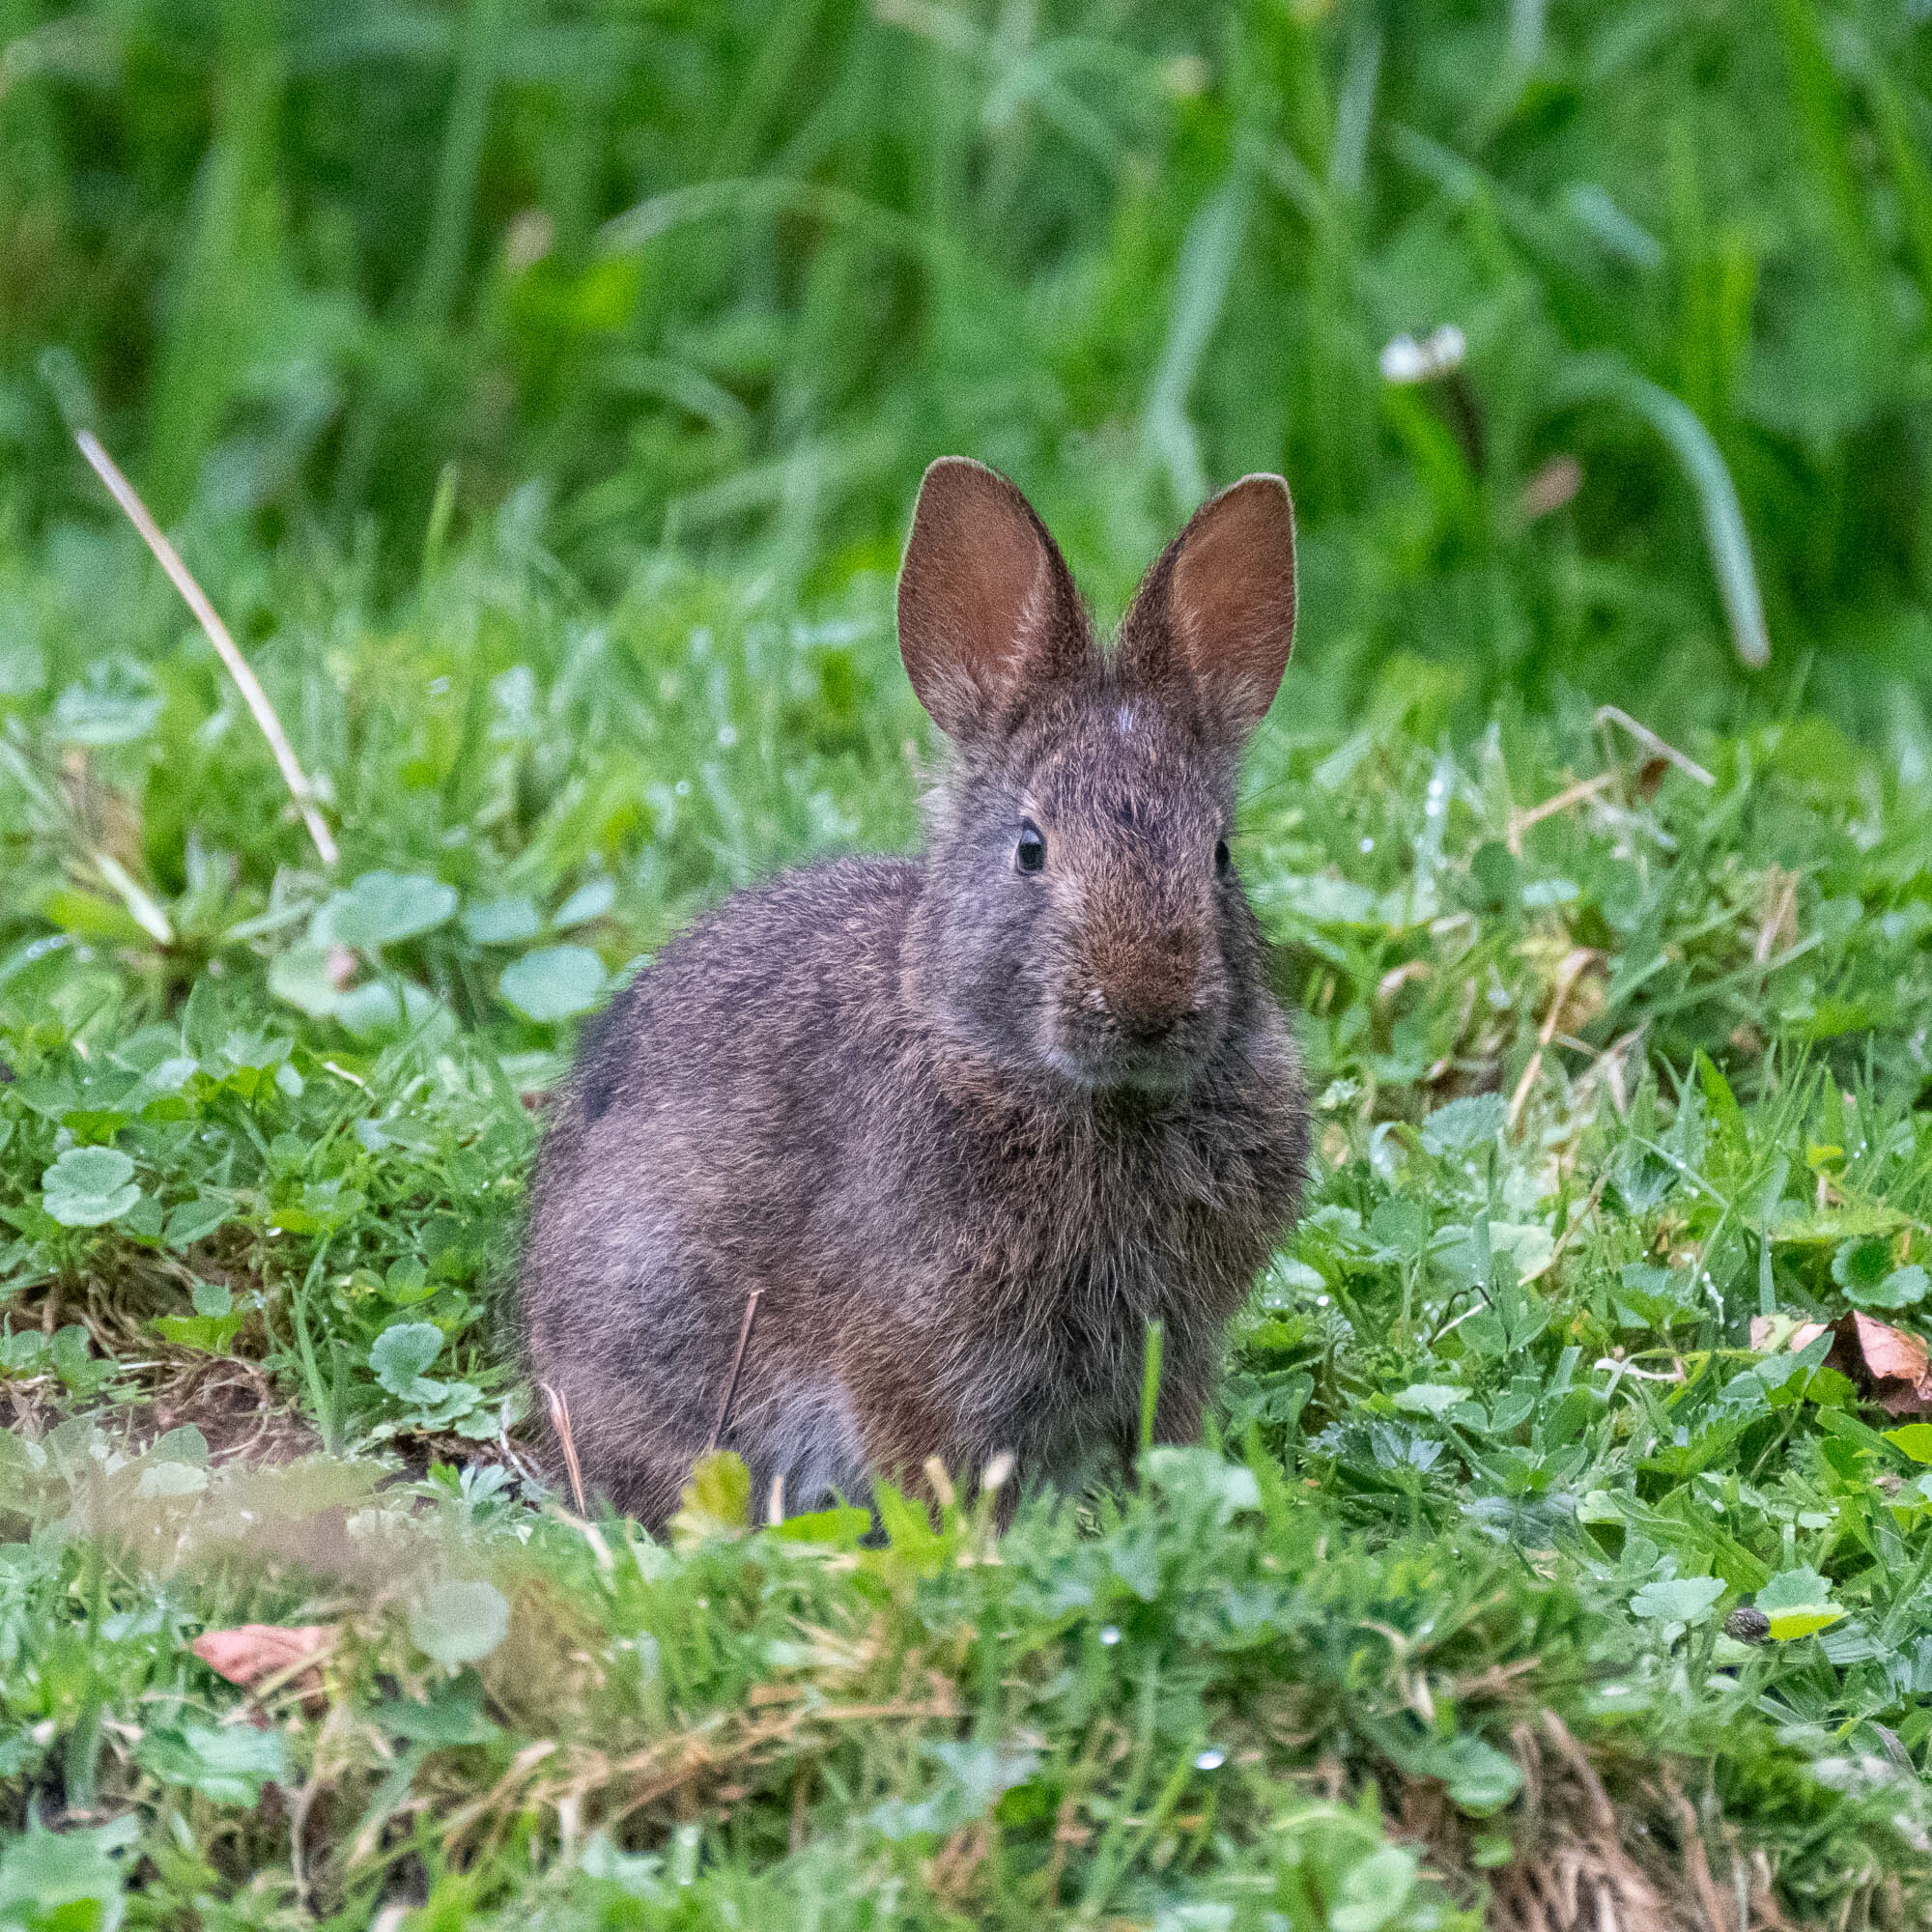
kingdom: Animalia
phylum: Chordata
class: Mammalia
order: Lagomorpha
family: Leporidae
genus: Sylvilagus
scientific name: Sylvilagus andinus
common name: Andean cottontail
